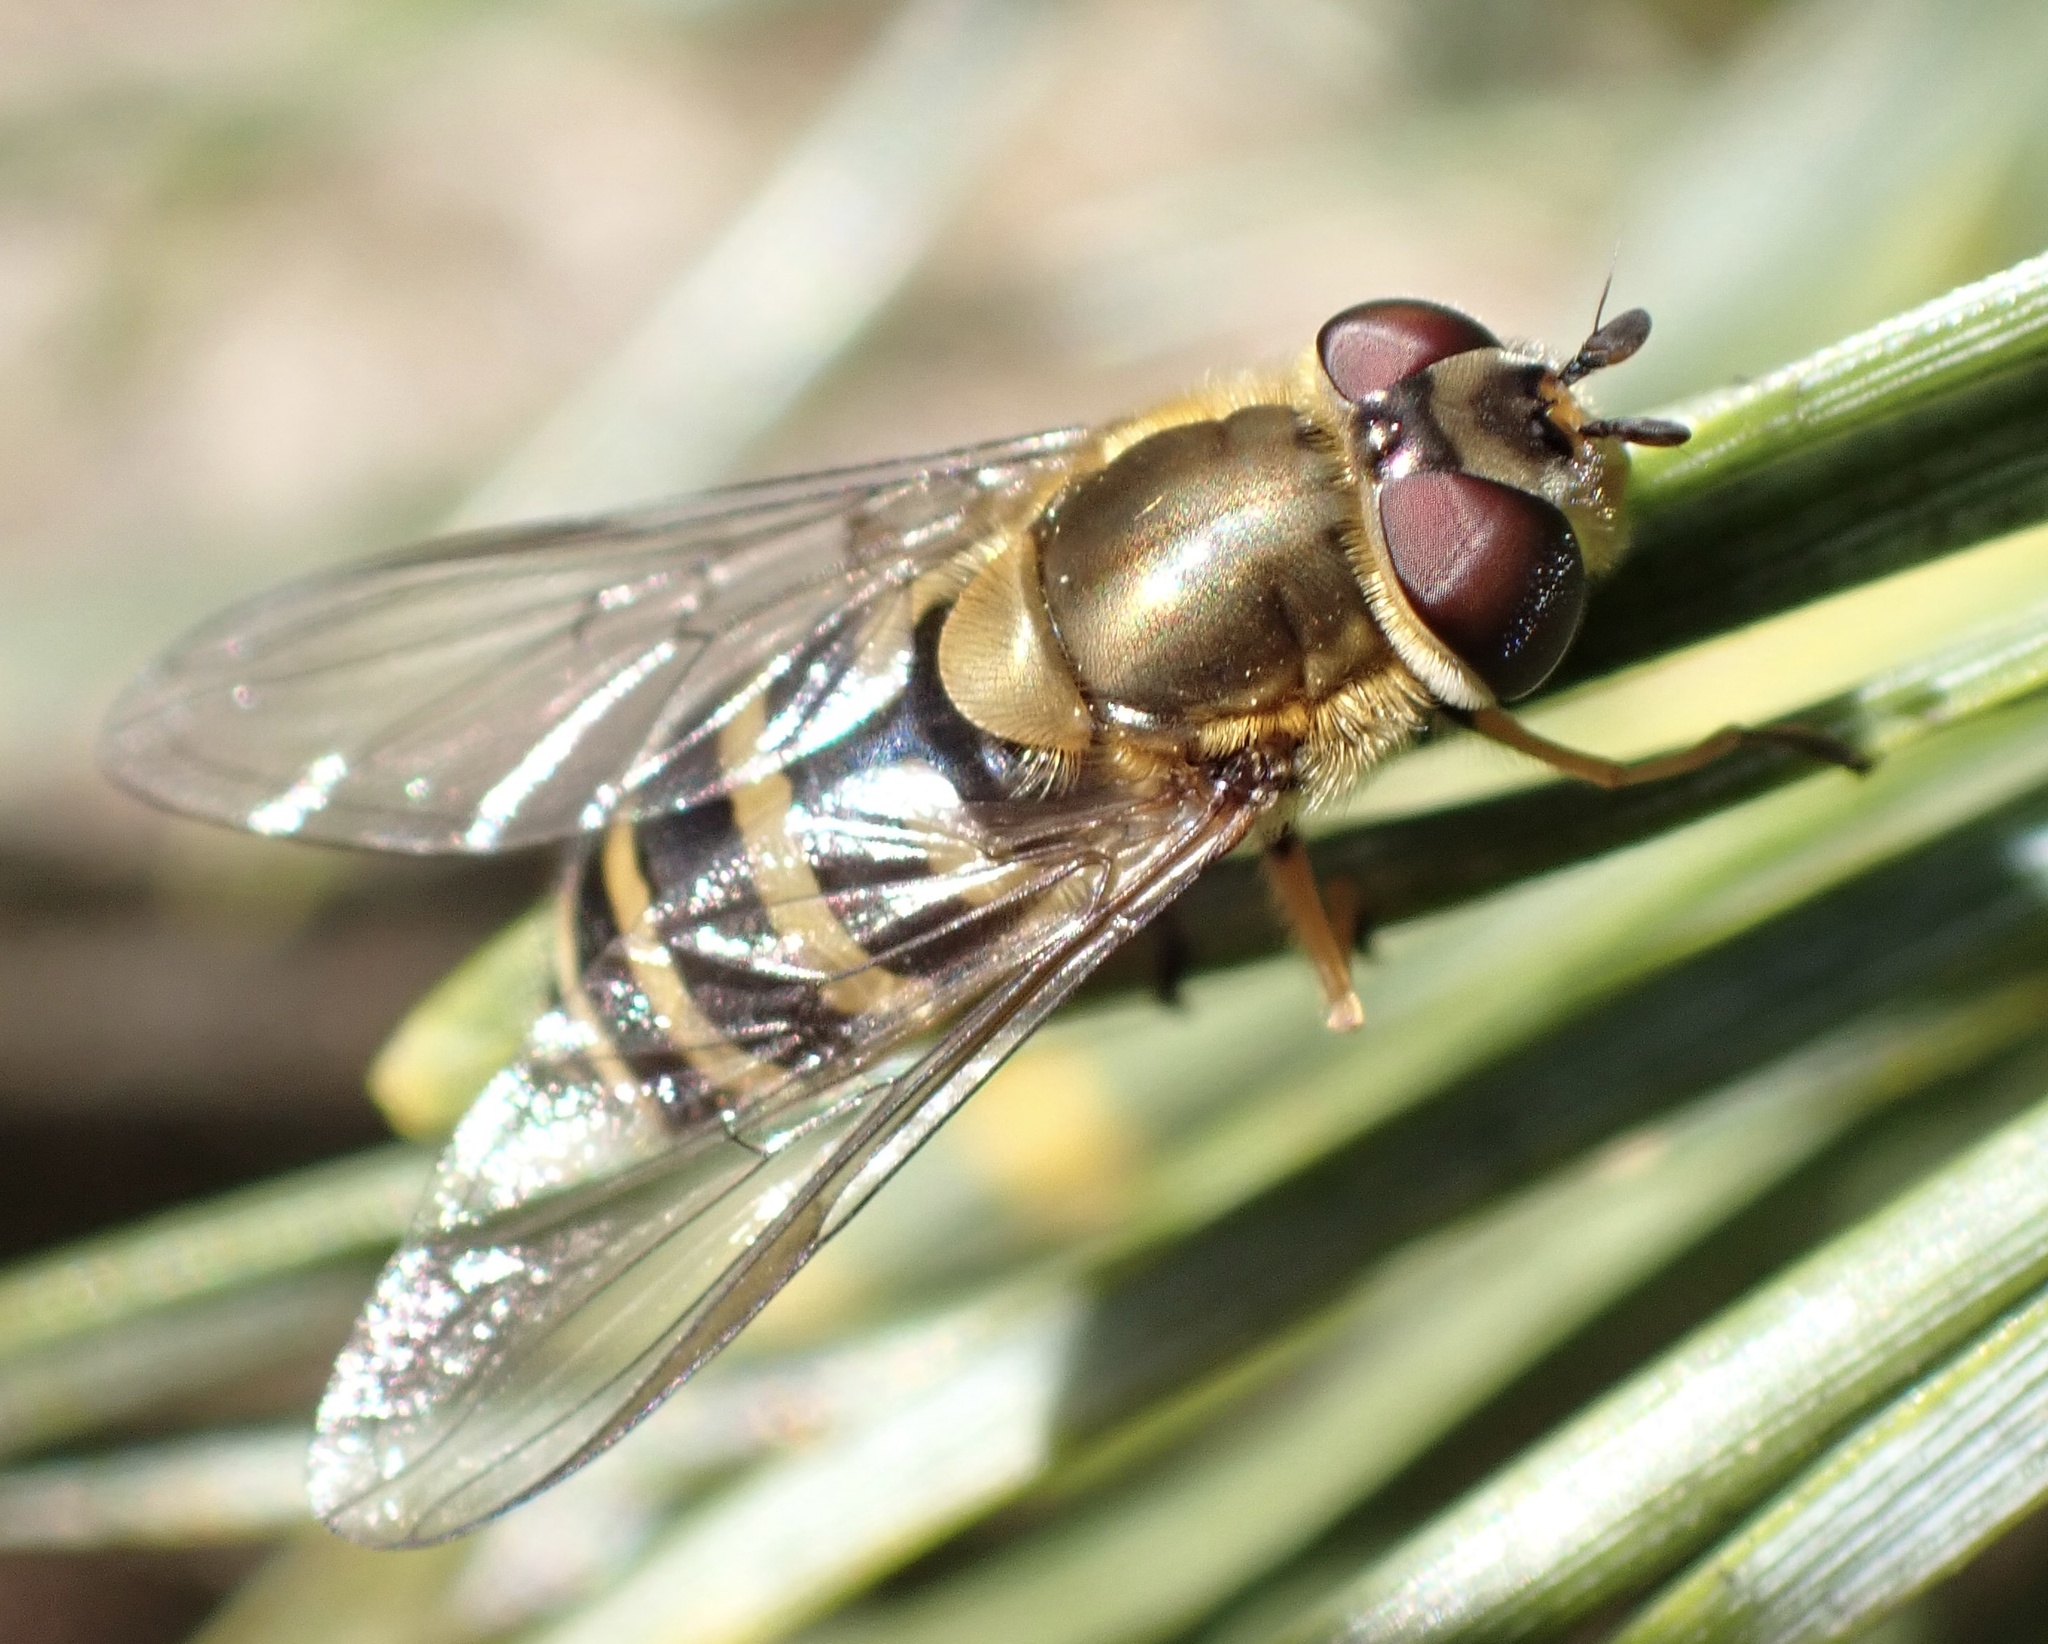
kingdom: Animalia
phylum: Arthropoda
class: Insecta
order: Diptera
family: Syrphidae
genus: Syrphus
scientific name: Syrphus torvus
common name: Hairy-eyed flower fly
